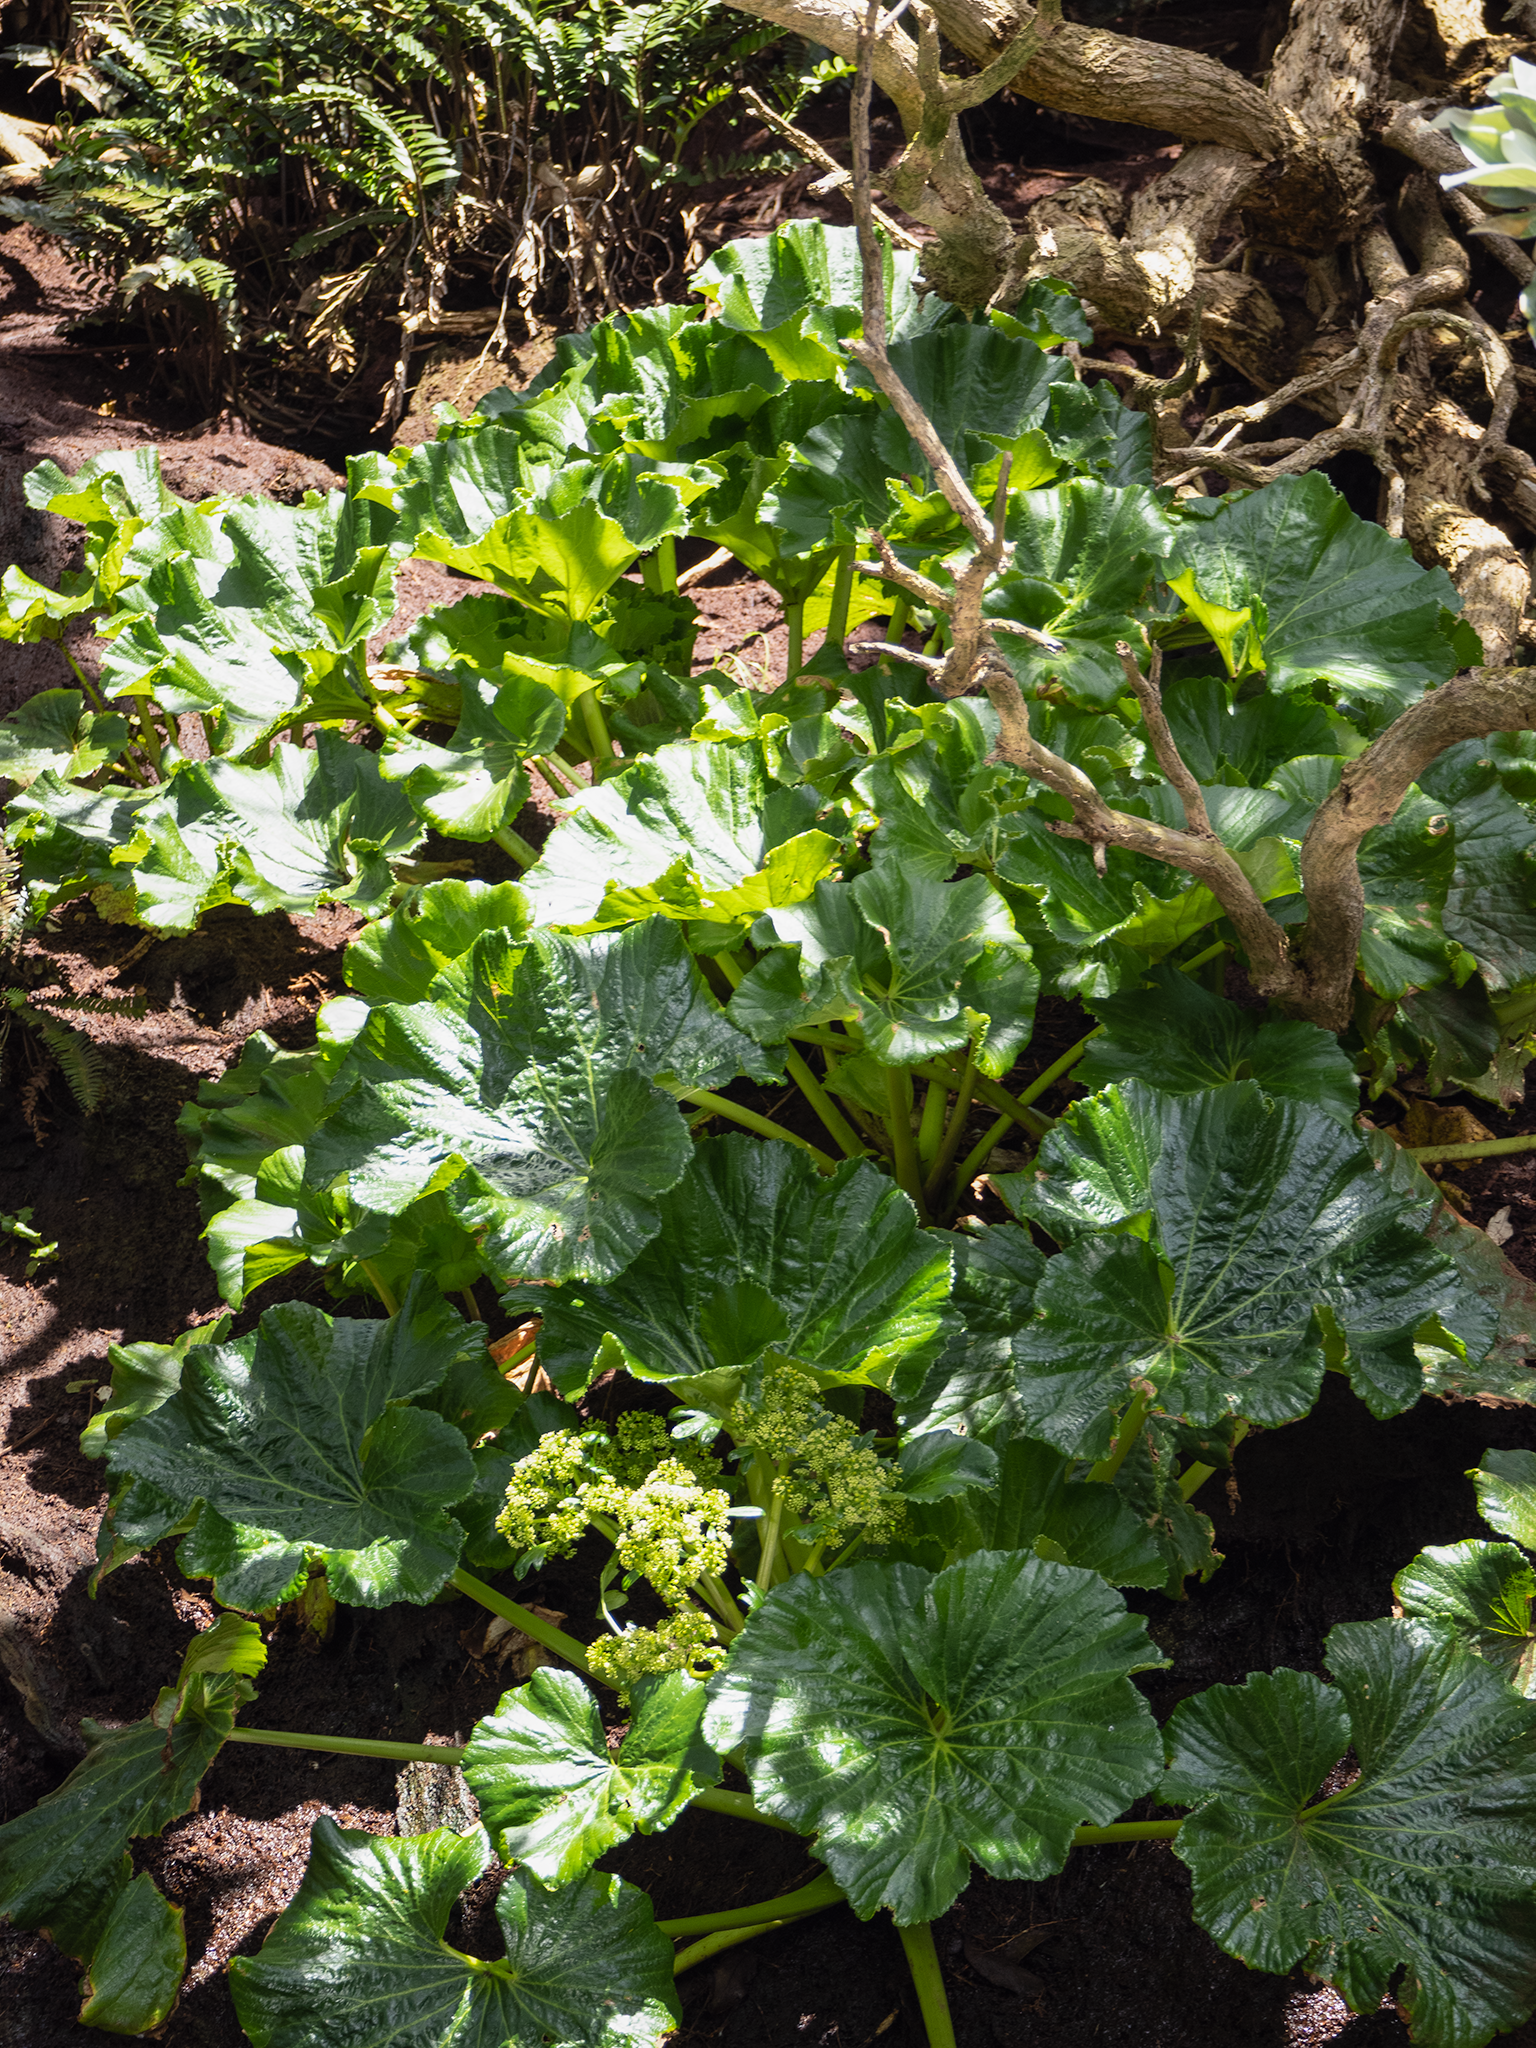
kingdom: Plantae
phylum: Tracheophyta
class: Magnoliopsida
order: Apiales
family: Apiaceae
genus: Azorella
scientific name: Azorella robusta
